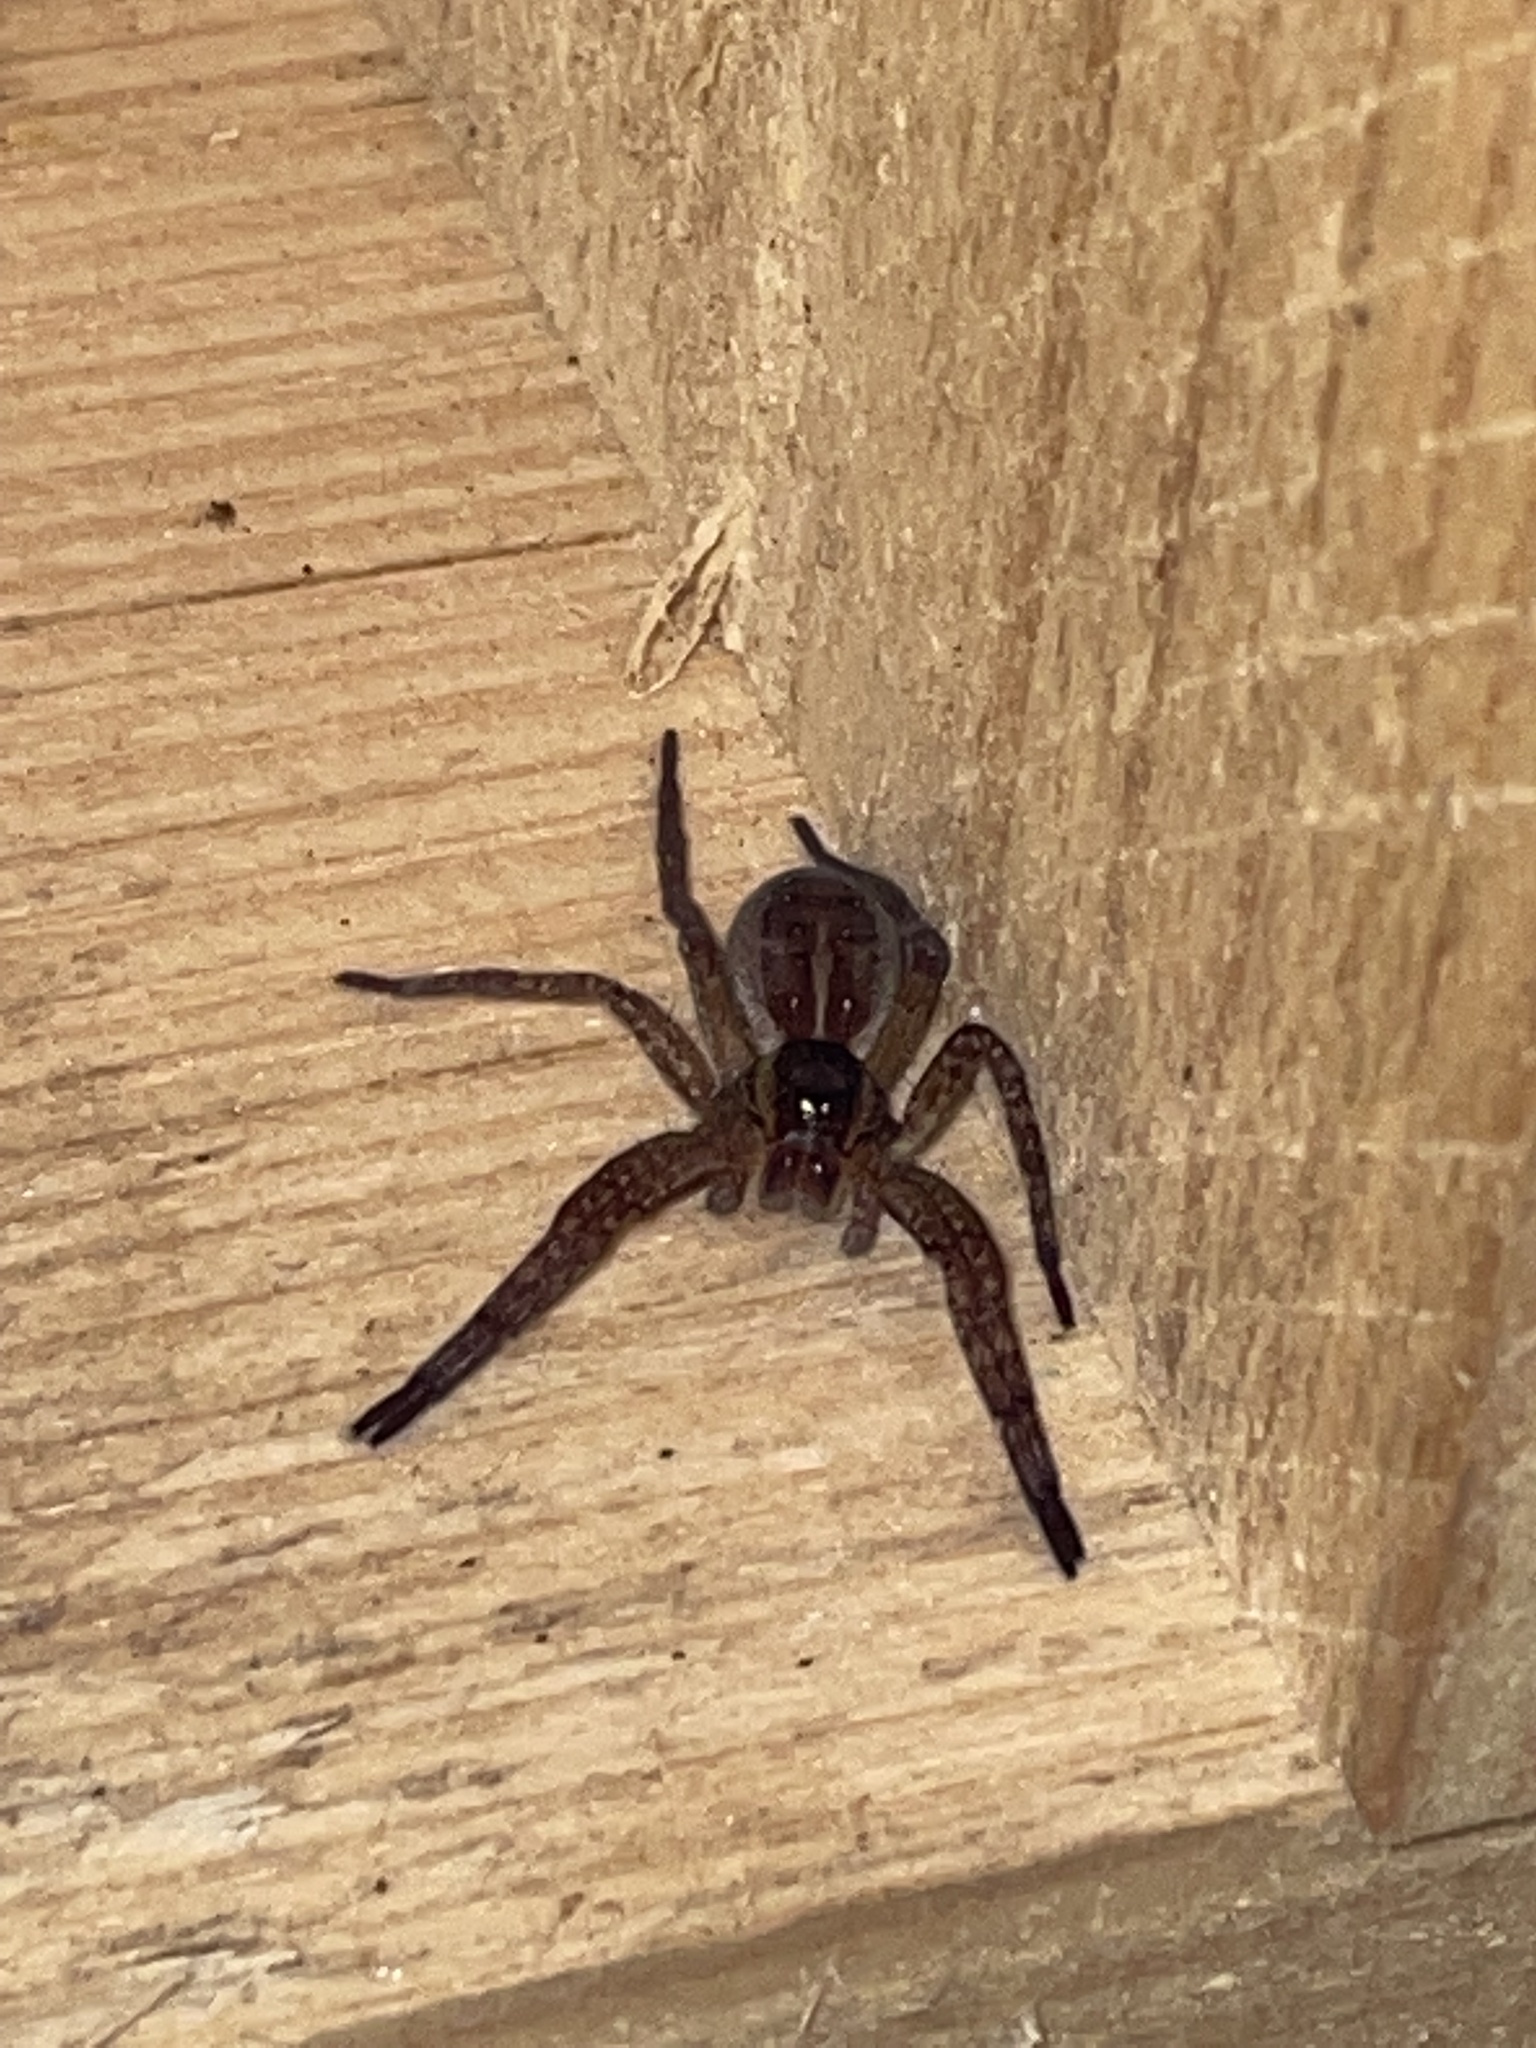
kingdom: Animalia
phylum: Arthropoda
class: Arachnida
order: Araneae
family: Pisauridae
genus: Dolomedes
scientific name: Dolomedes
